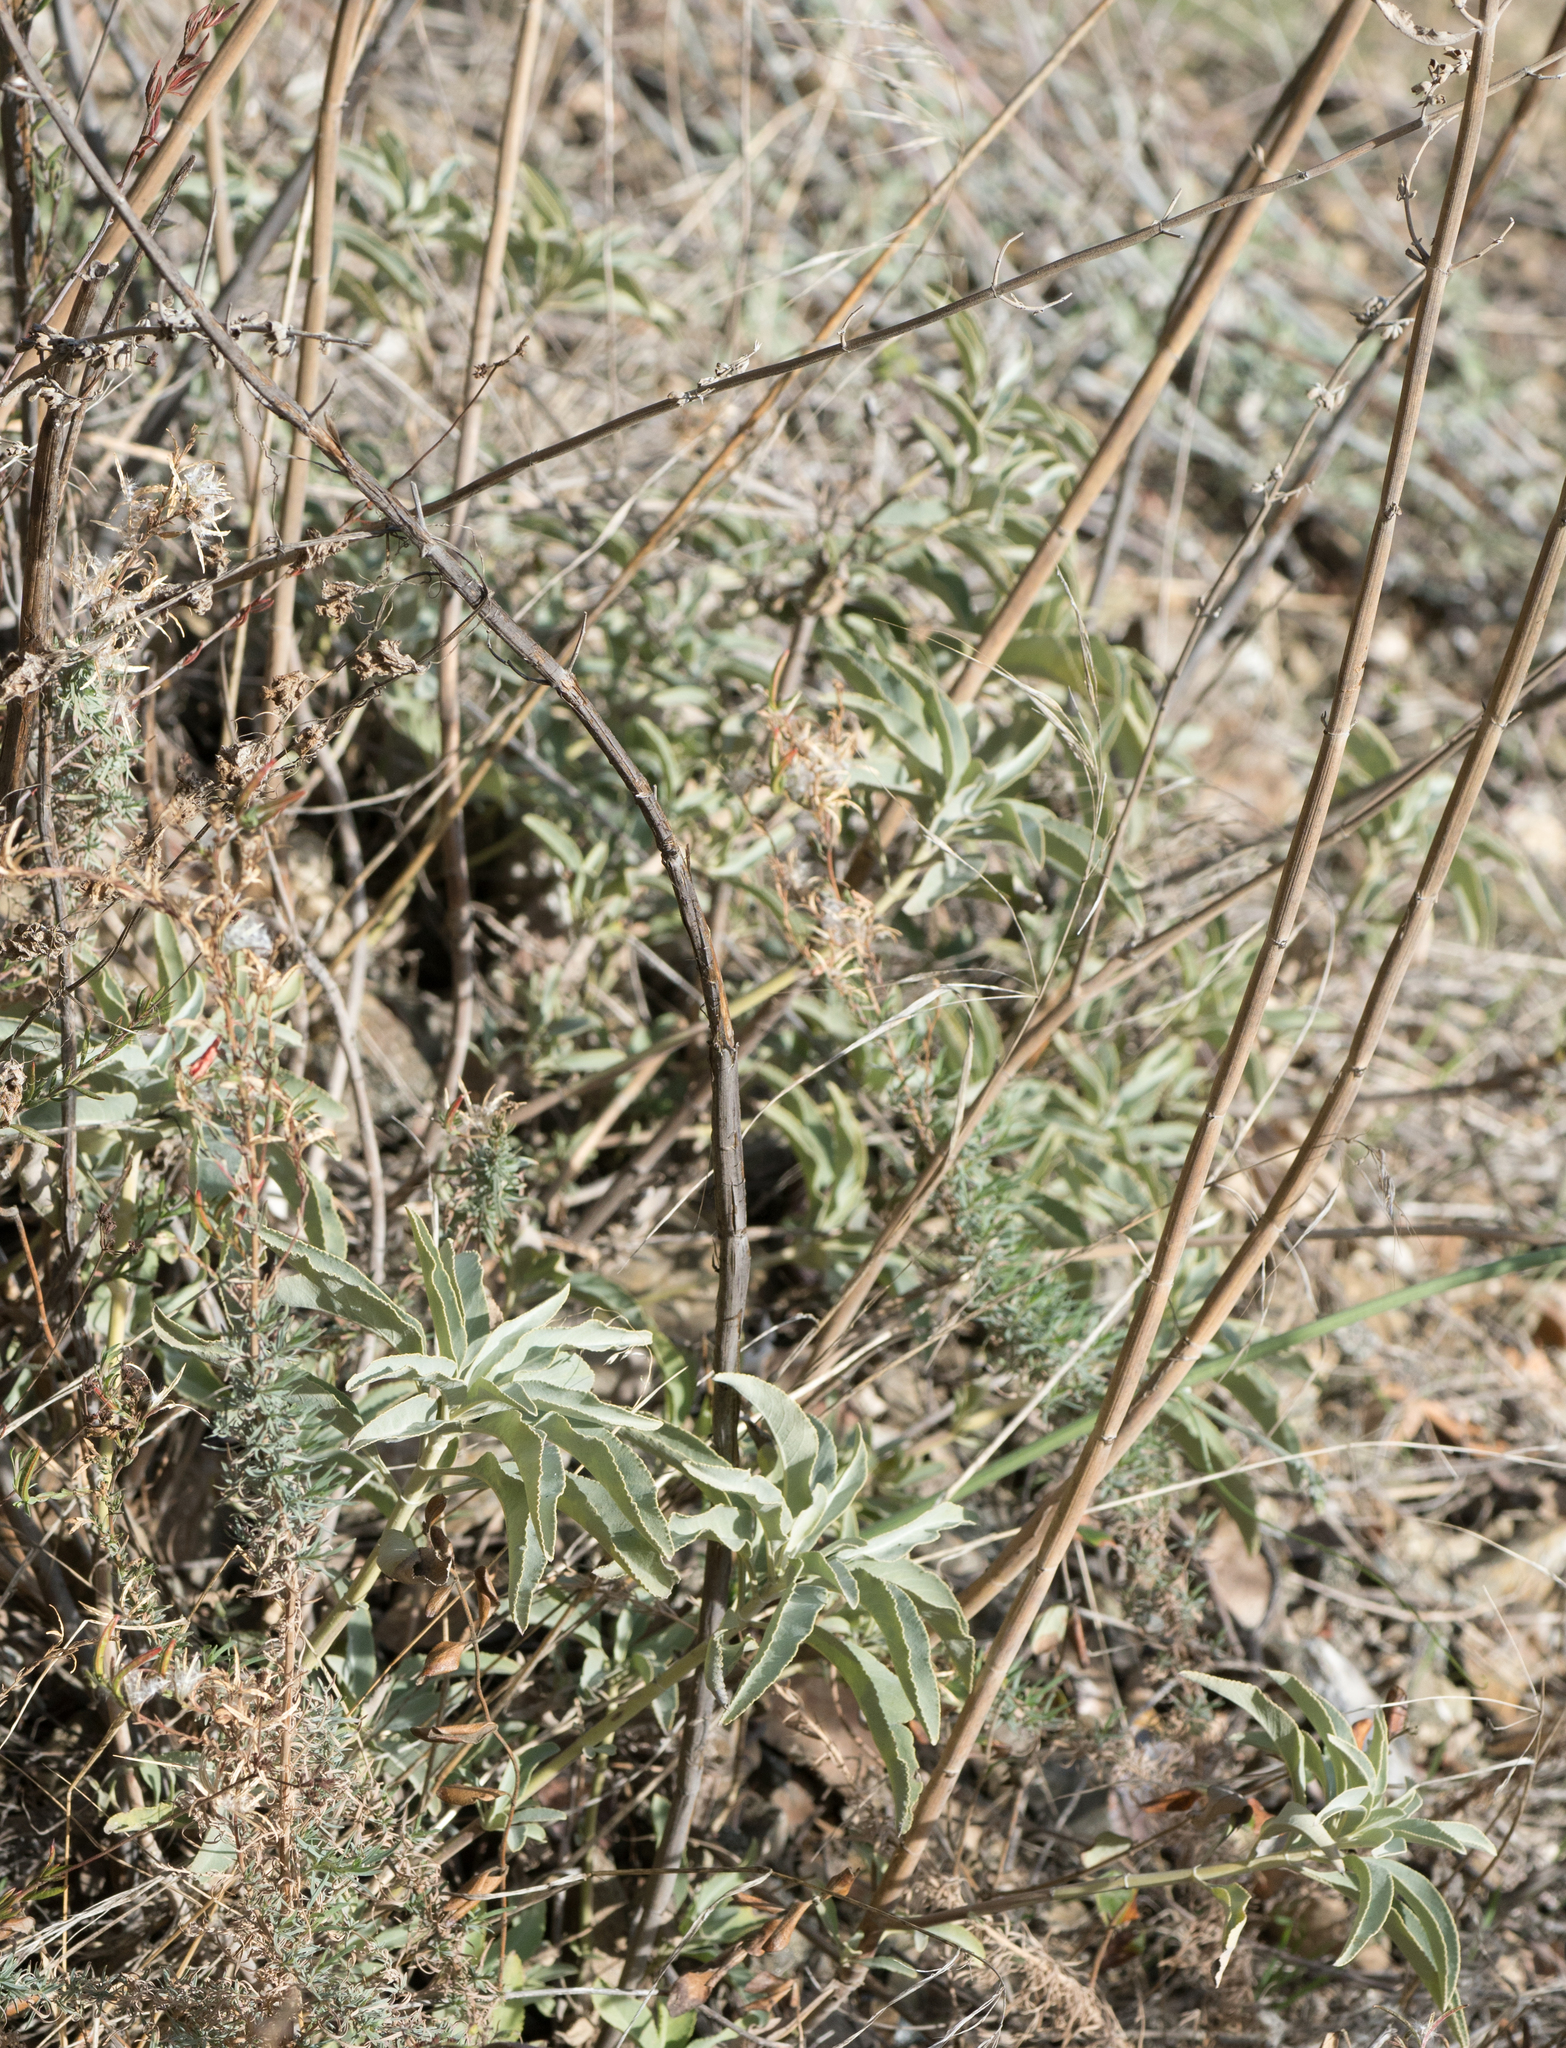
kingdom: Plantae
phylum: Tracheophyta
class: Magnoliopsida
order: Lamiales
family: Lamiaceae
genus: Salvia
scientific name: Salvia apiana
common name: White sage
